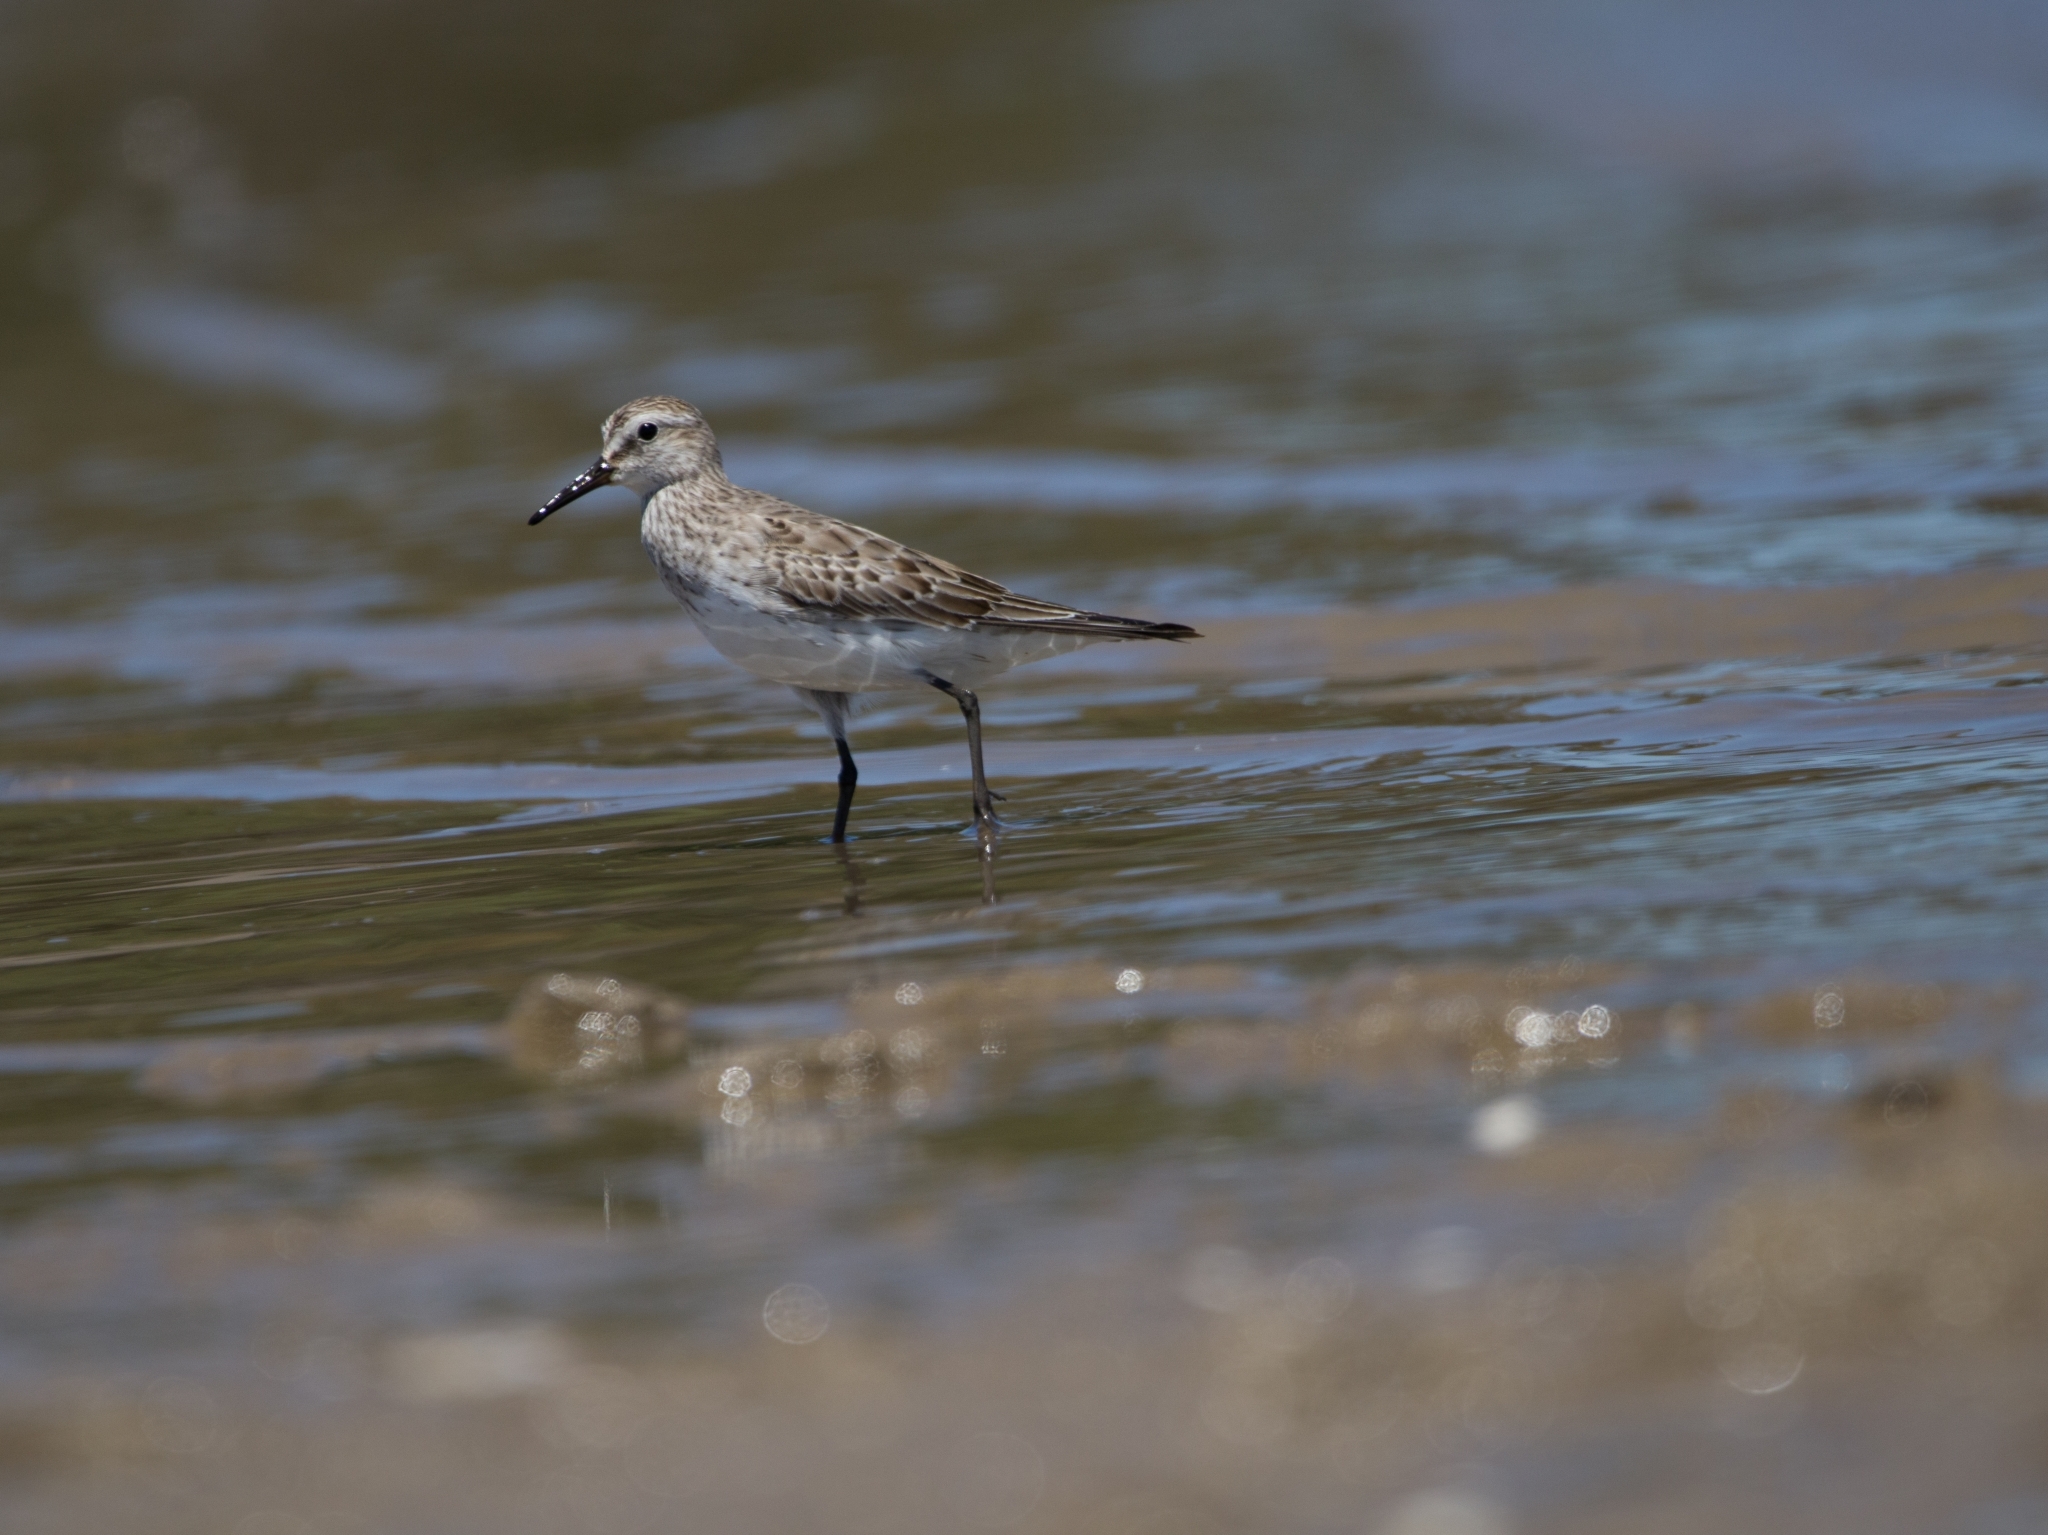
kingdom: Animalia
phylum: Chordata
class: Aves
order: Charadriiformes
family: Scolopacidae
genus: Calidris
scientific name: Calidris fuscicollis
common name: White-rumped sandpiper
